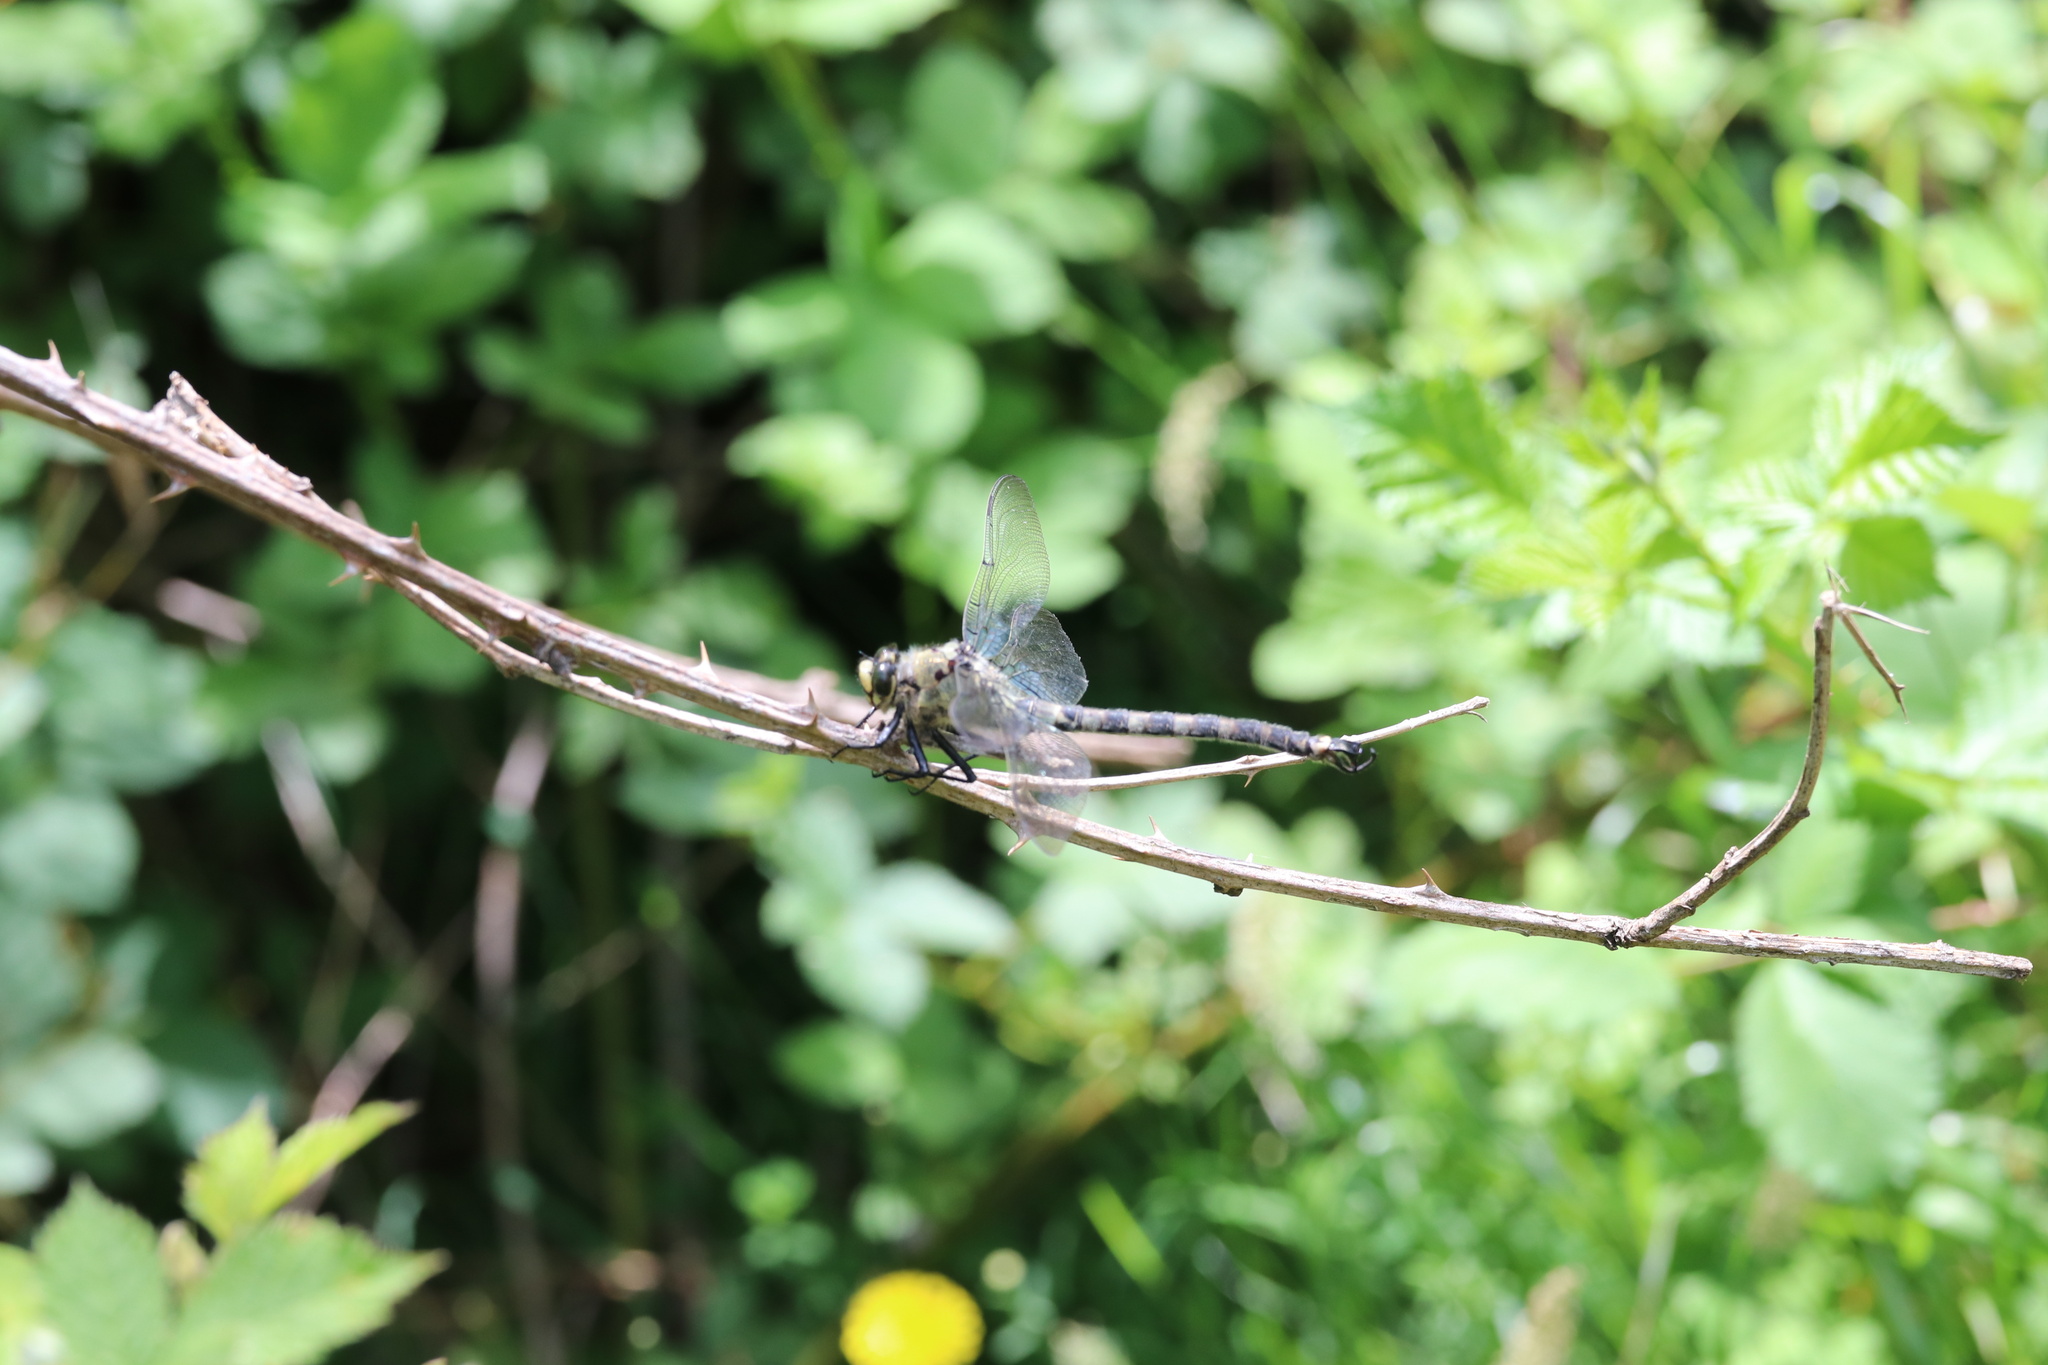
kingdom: Animalia
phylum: Arthropoda
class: Insecta
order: Odonata
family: Petaluridae
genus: Phenes
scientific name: Phenes raptor
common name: Chilean petaltail
